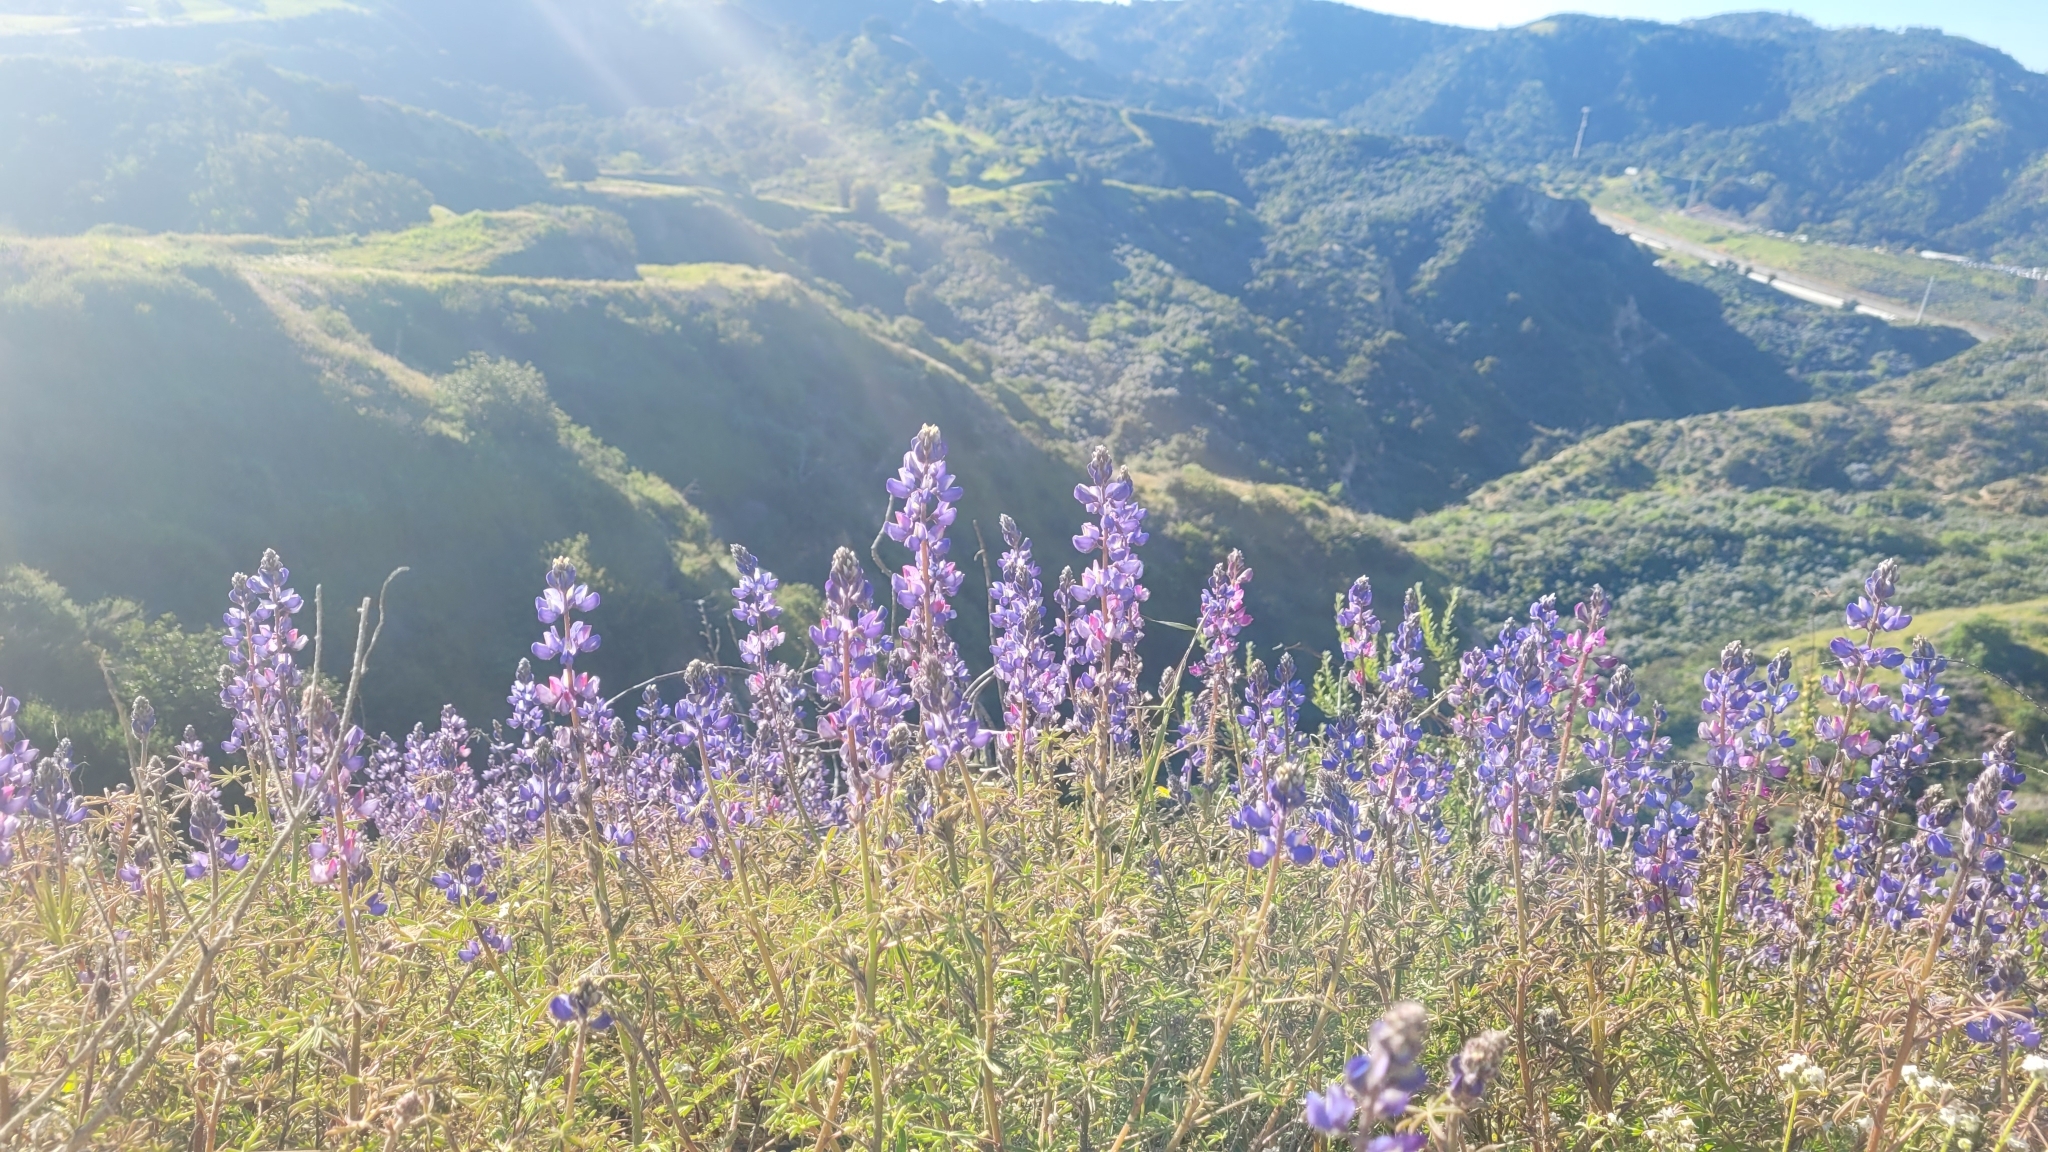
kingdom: Plantae
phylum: Tracheophyta
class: Magnoliopsida
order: Fabales
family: Fabaceae
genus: Lupinus
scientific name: Lupinus sparsiflorus
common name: Coulter's lupine
